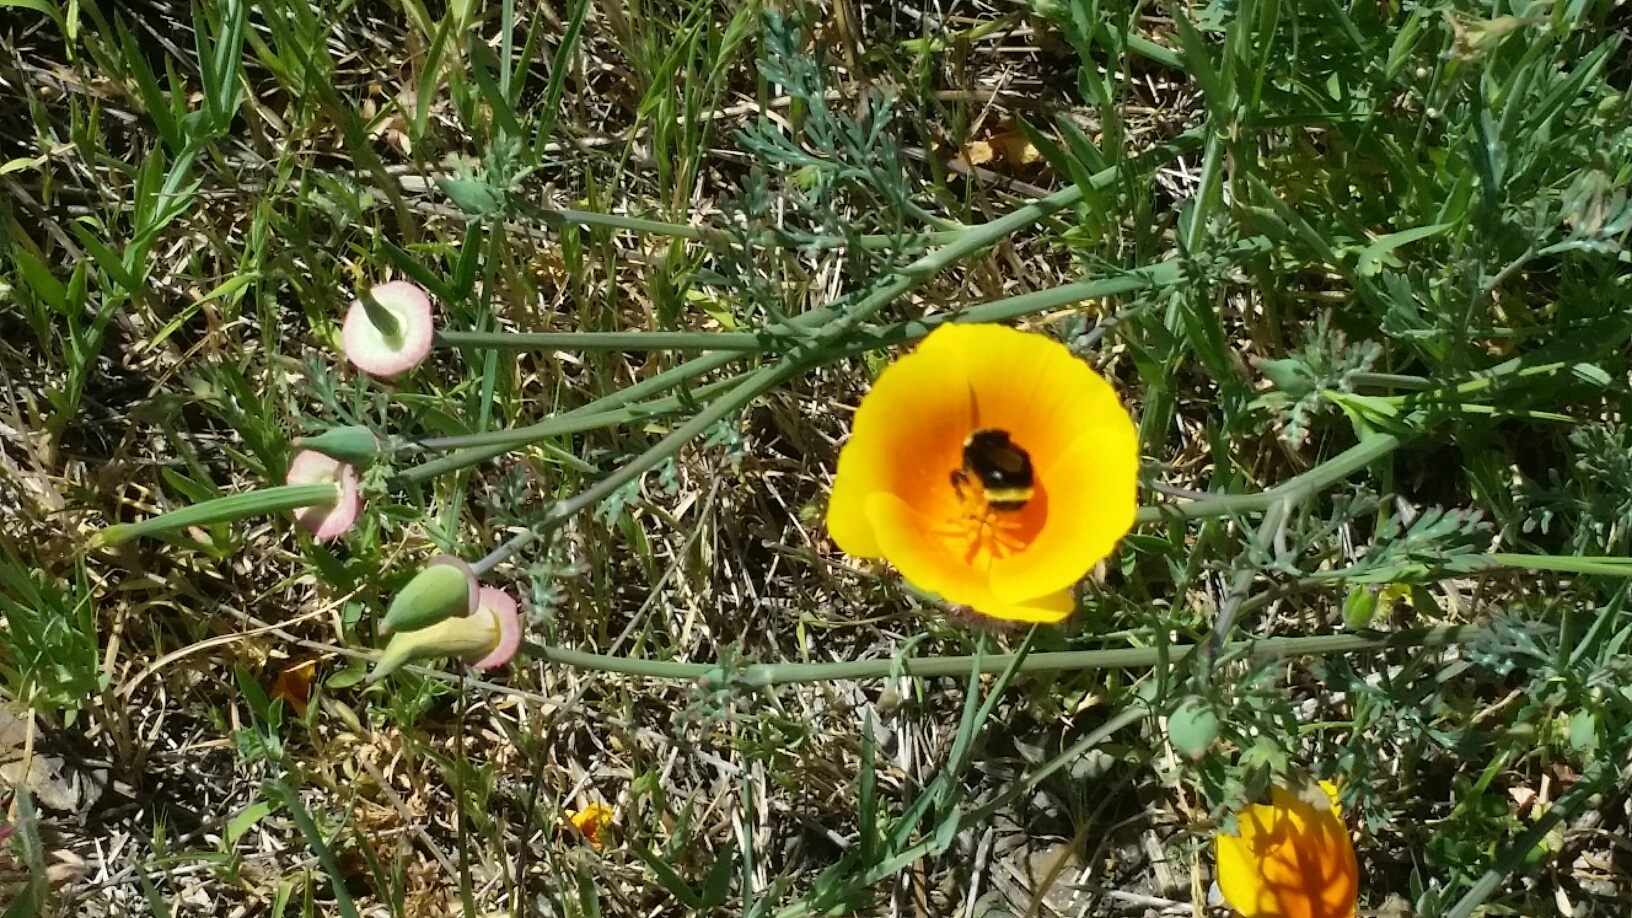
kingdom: Plantae
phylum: Tracheophyta
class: Magnoliopsida
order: Ranunculales
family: Papaveraceae
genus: Eschscholzia
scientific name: Eschscholzia californica
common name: California poppy
